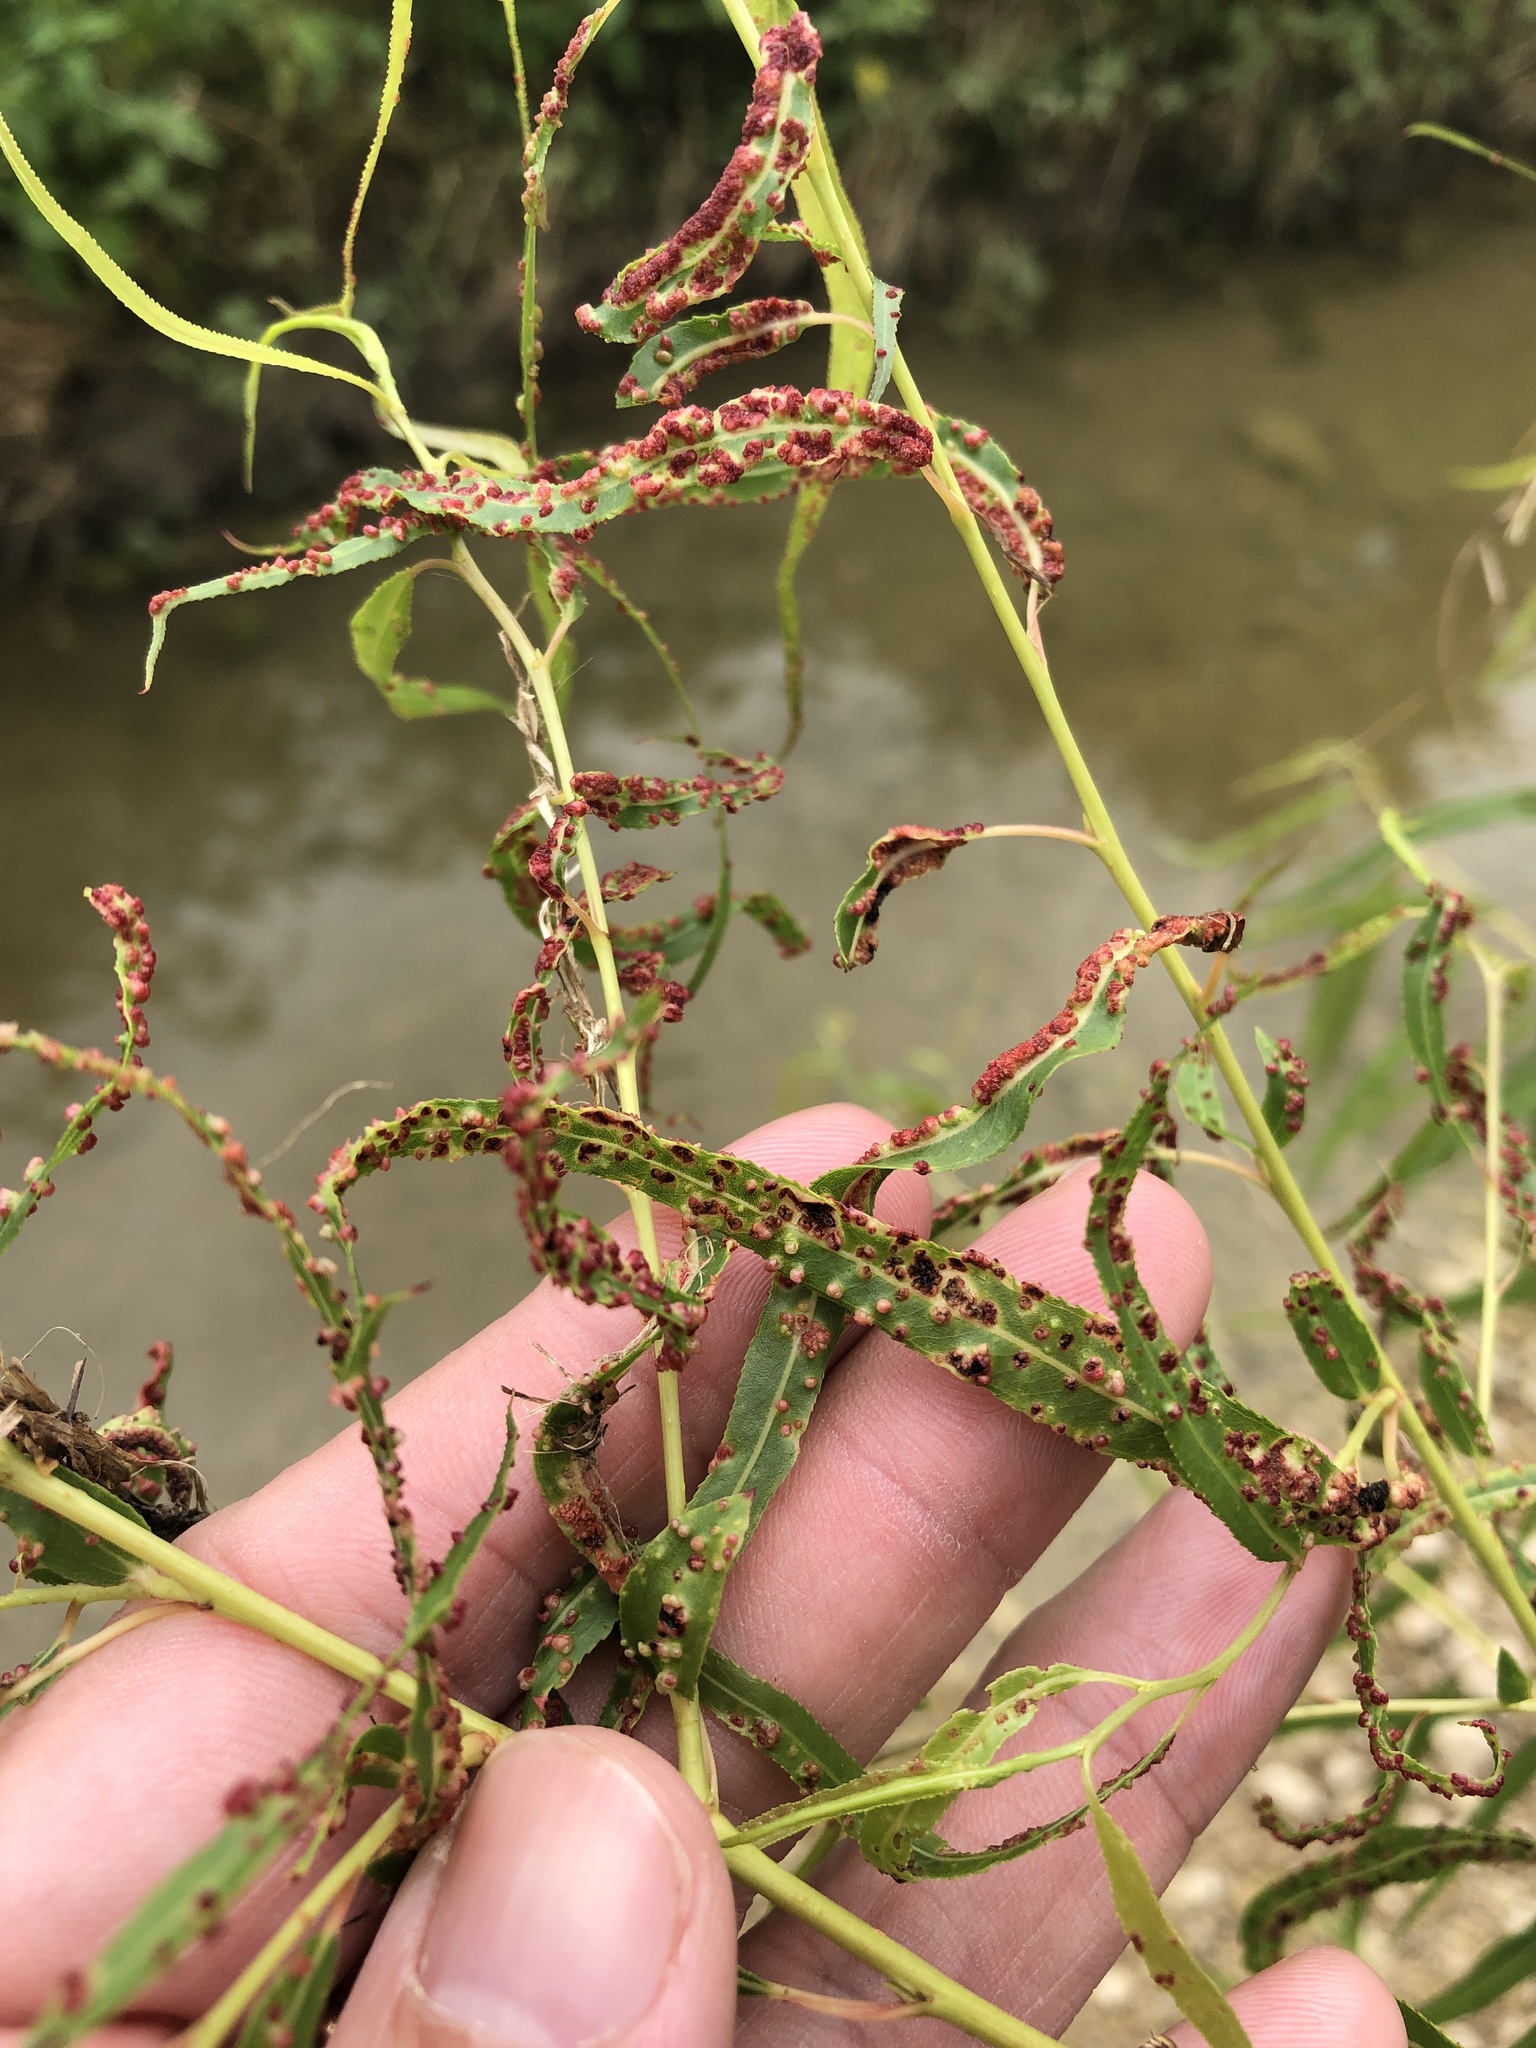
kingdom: Animalia
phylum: Arthropoda
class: Arachnida
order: Trombidiformes
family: Eriophyidae
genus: Aculus
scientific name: Aculus tetanothrix
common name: Willow bead gall mite
